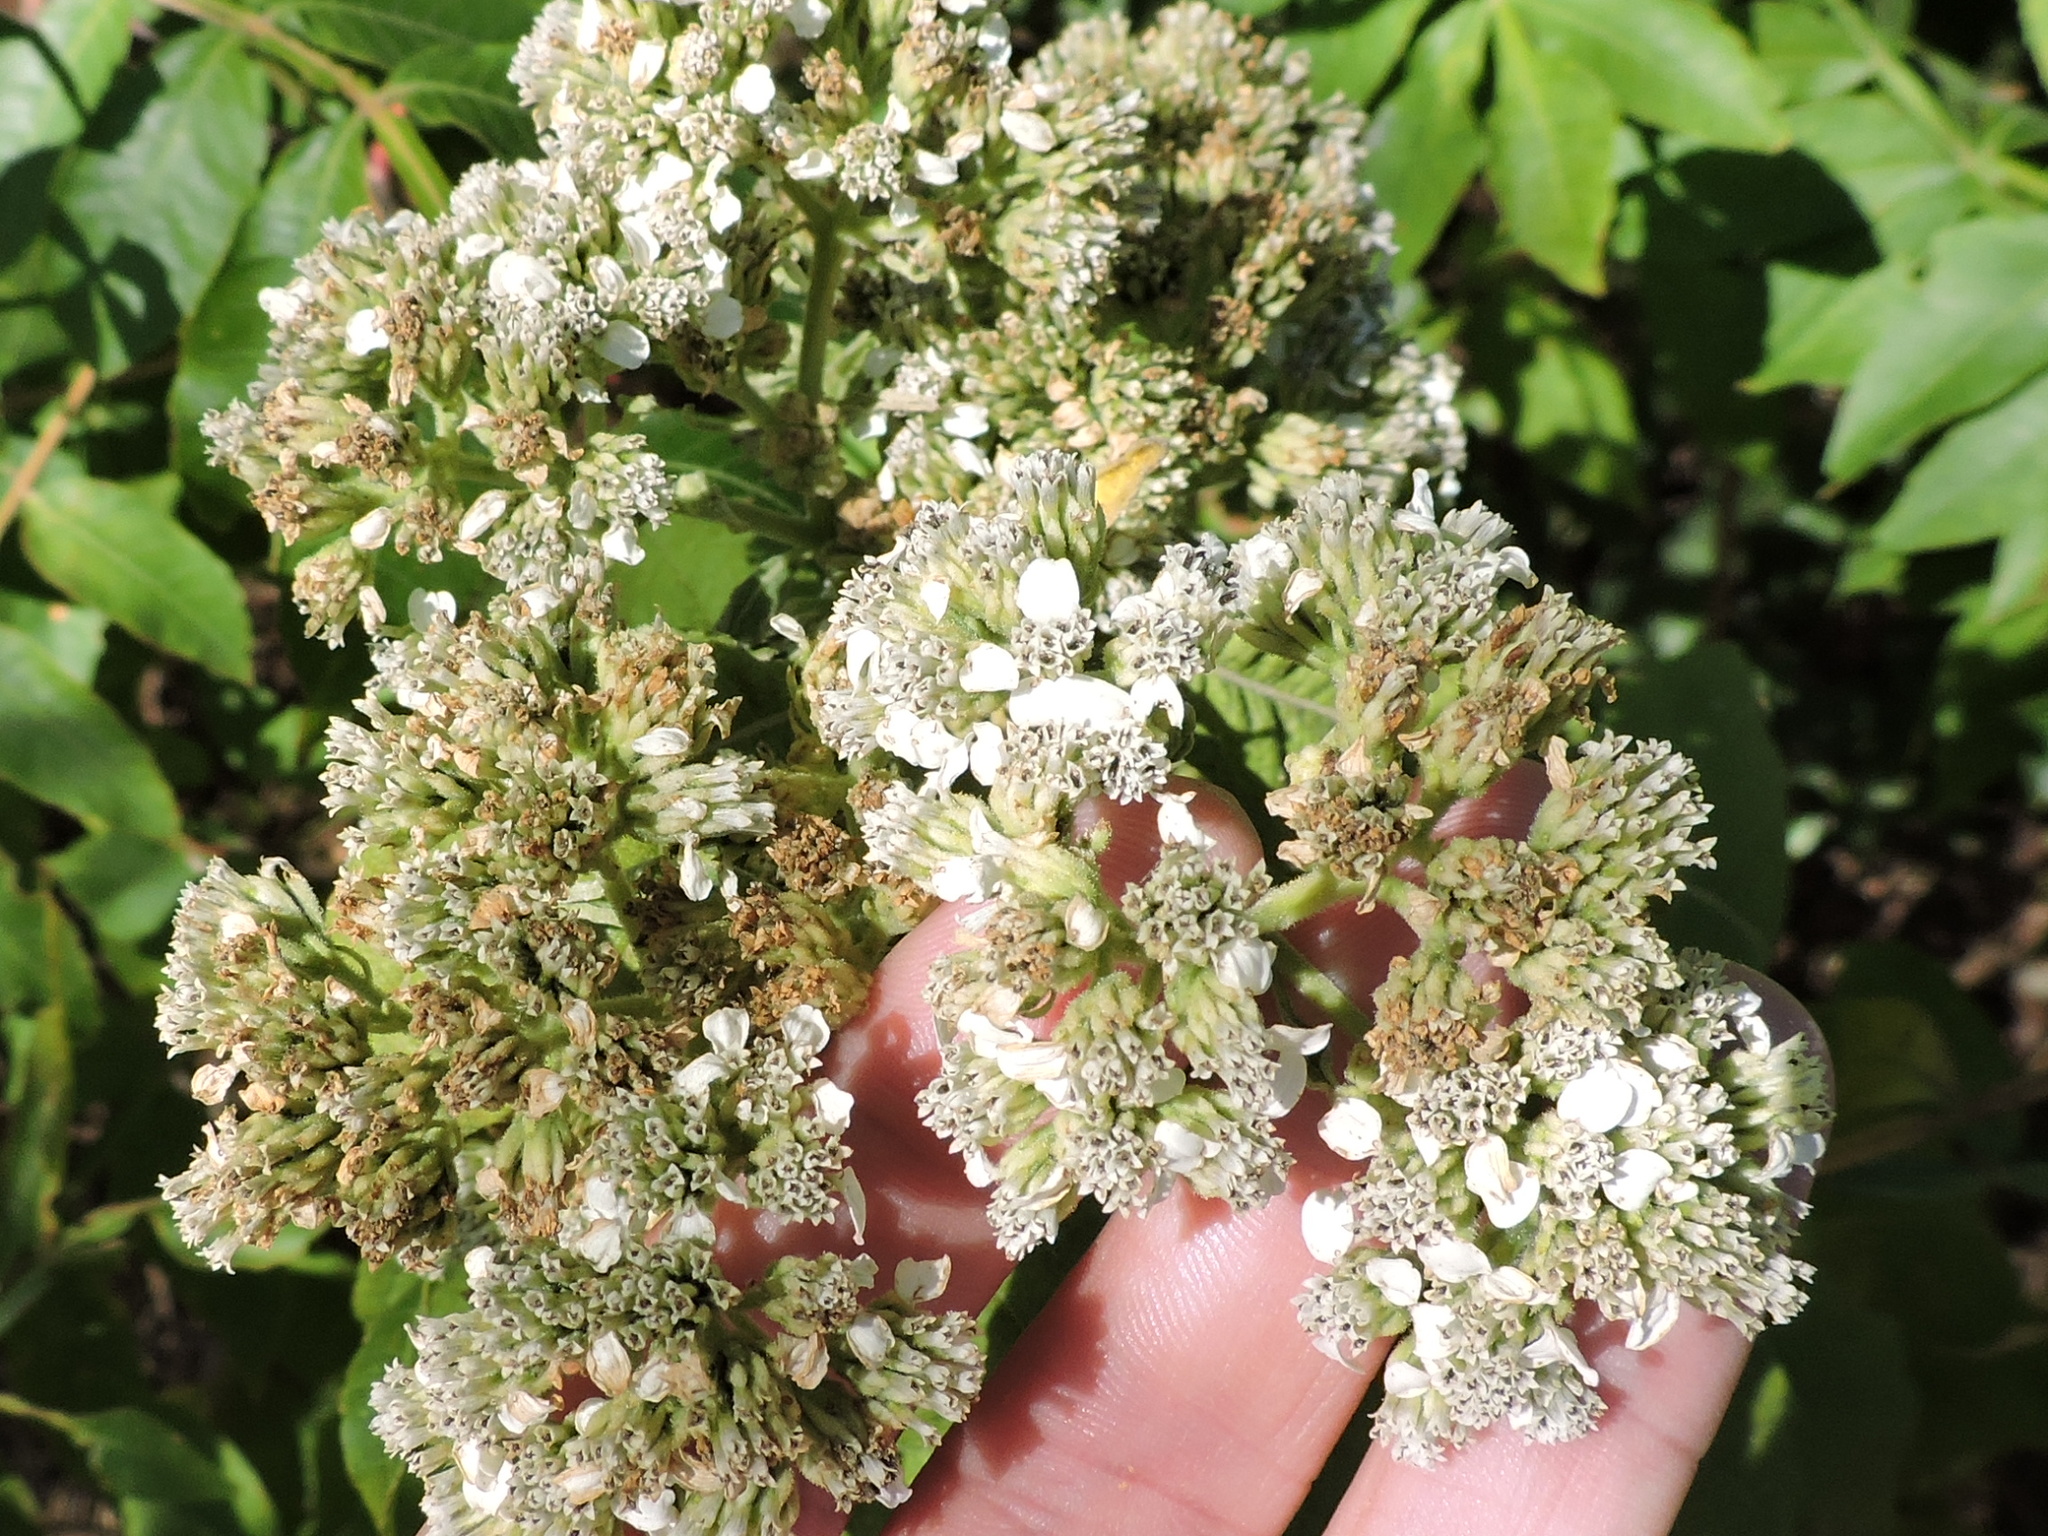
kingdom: Plantae
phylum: Tracheophyta
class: Magnoliopsida
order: Asterales
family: Asteraceae
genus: Verbesina
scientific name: Verbesina virginica
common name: Frostweed
